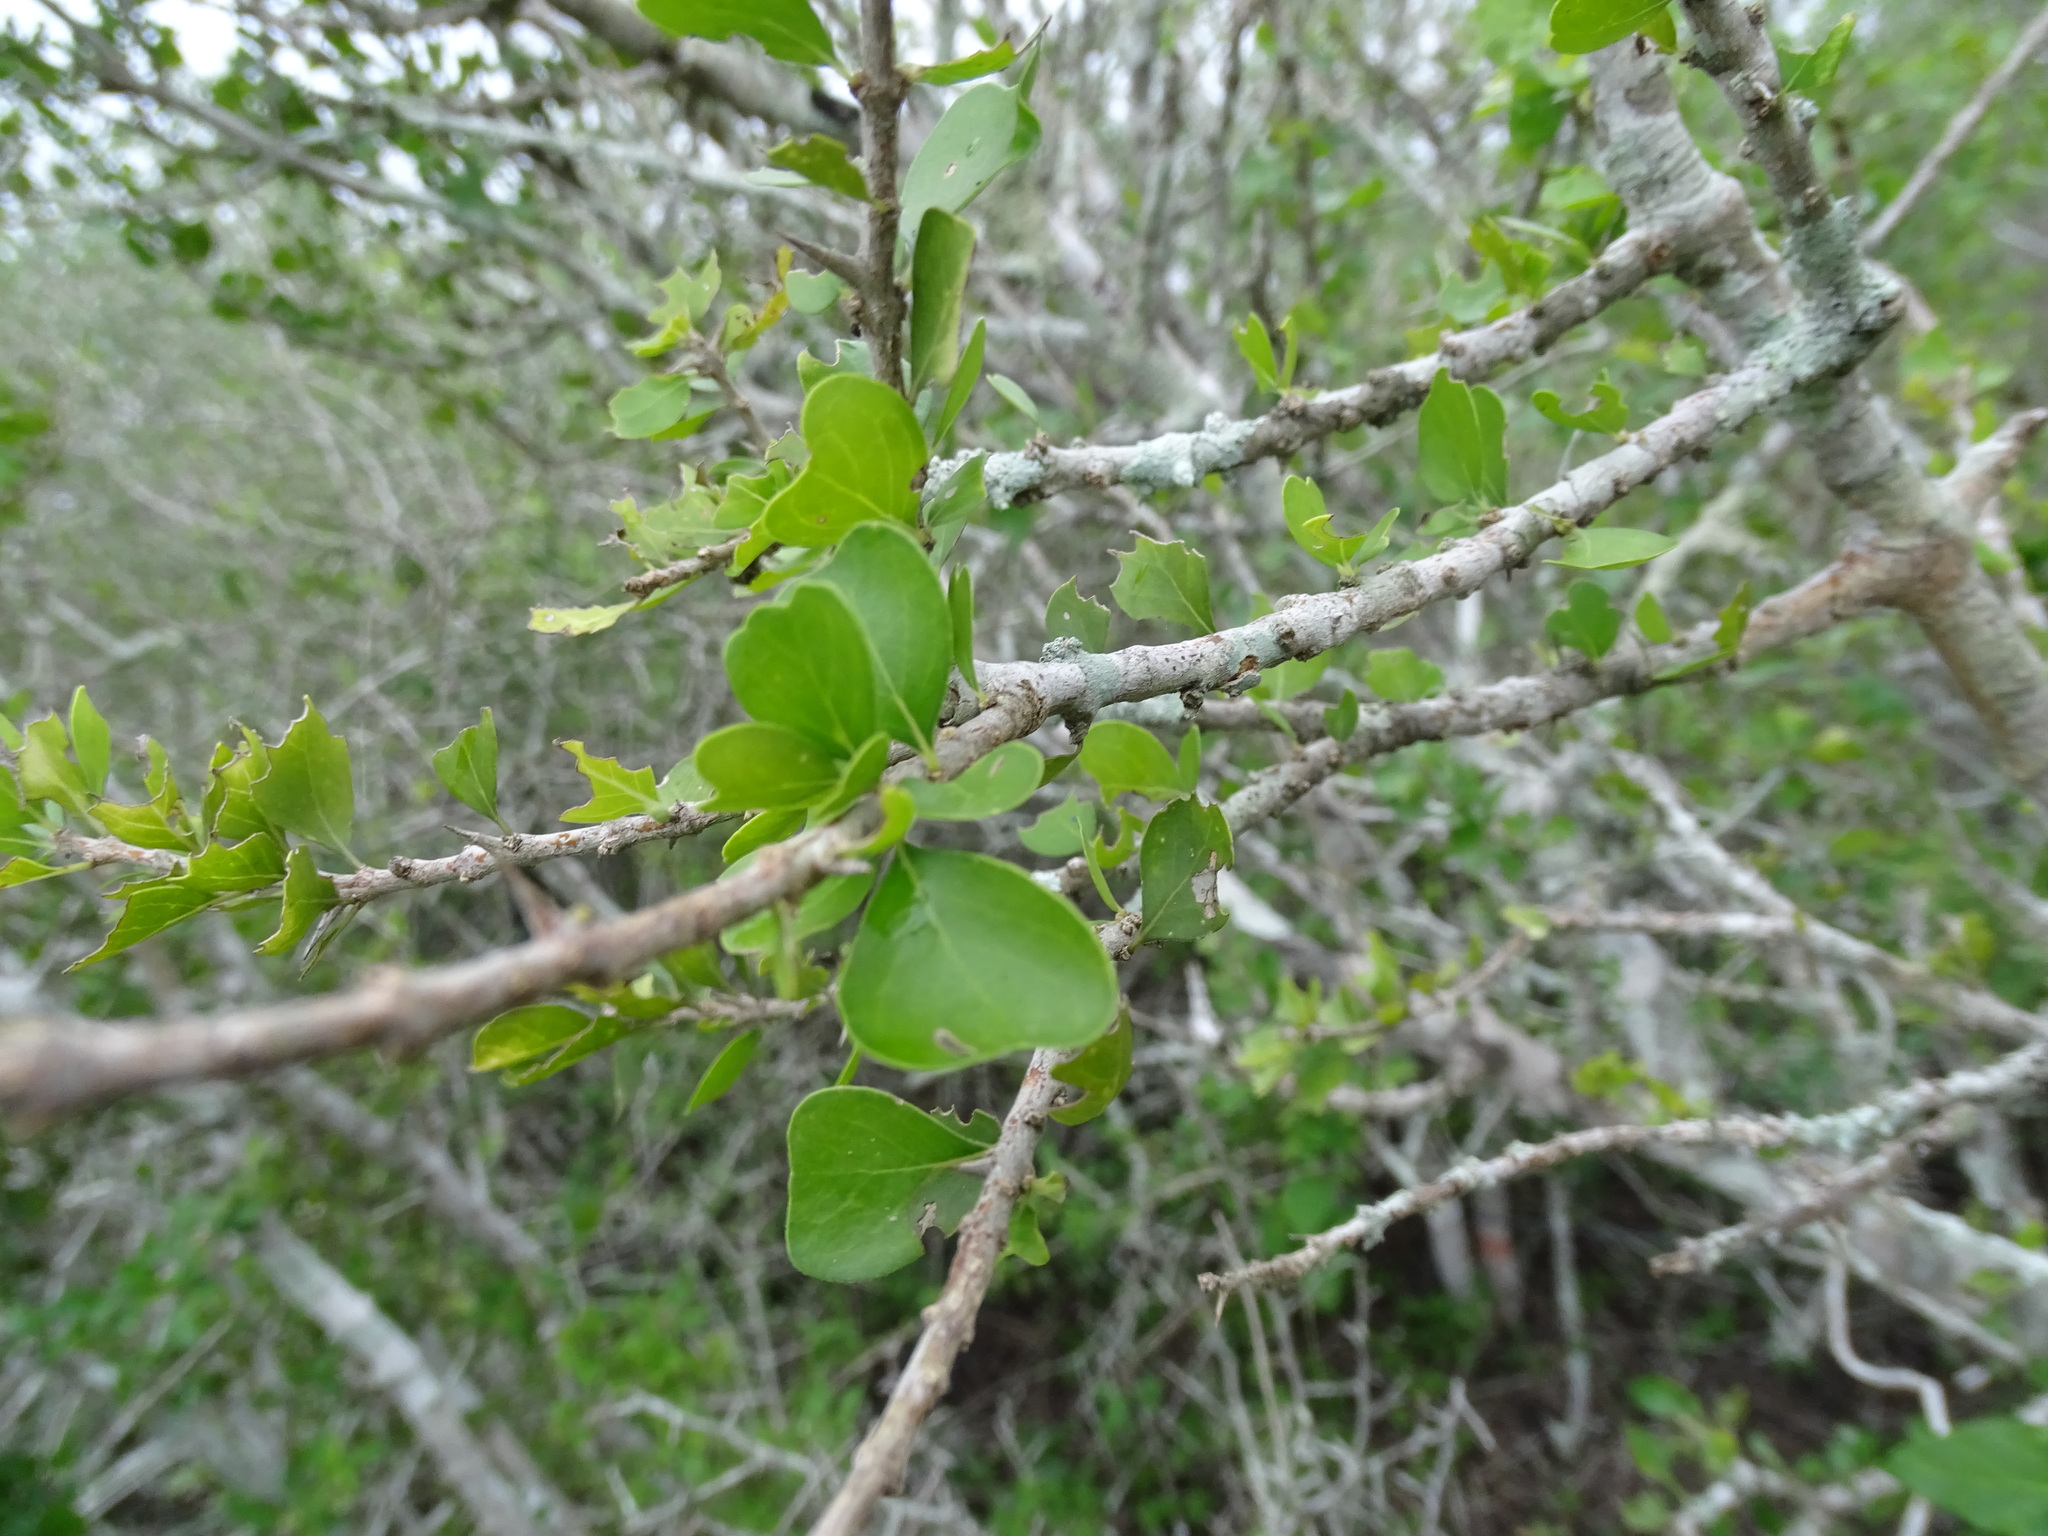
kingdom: Plantae
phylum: Tracheophyta
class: Magnoliopsida
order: Gentianales
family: Rubiaceae
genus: Randia
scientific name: Randia obcordata
